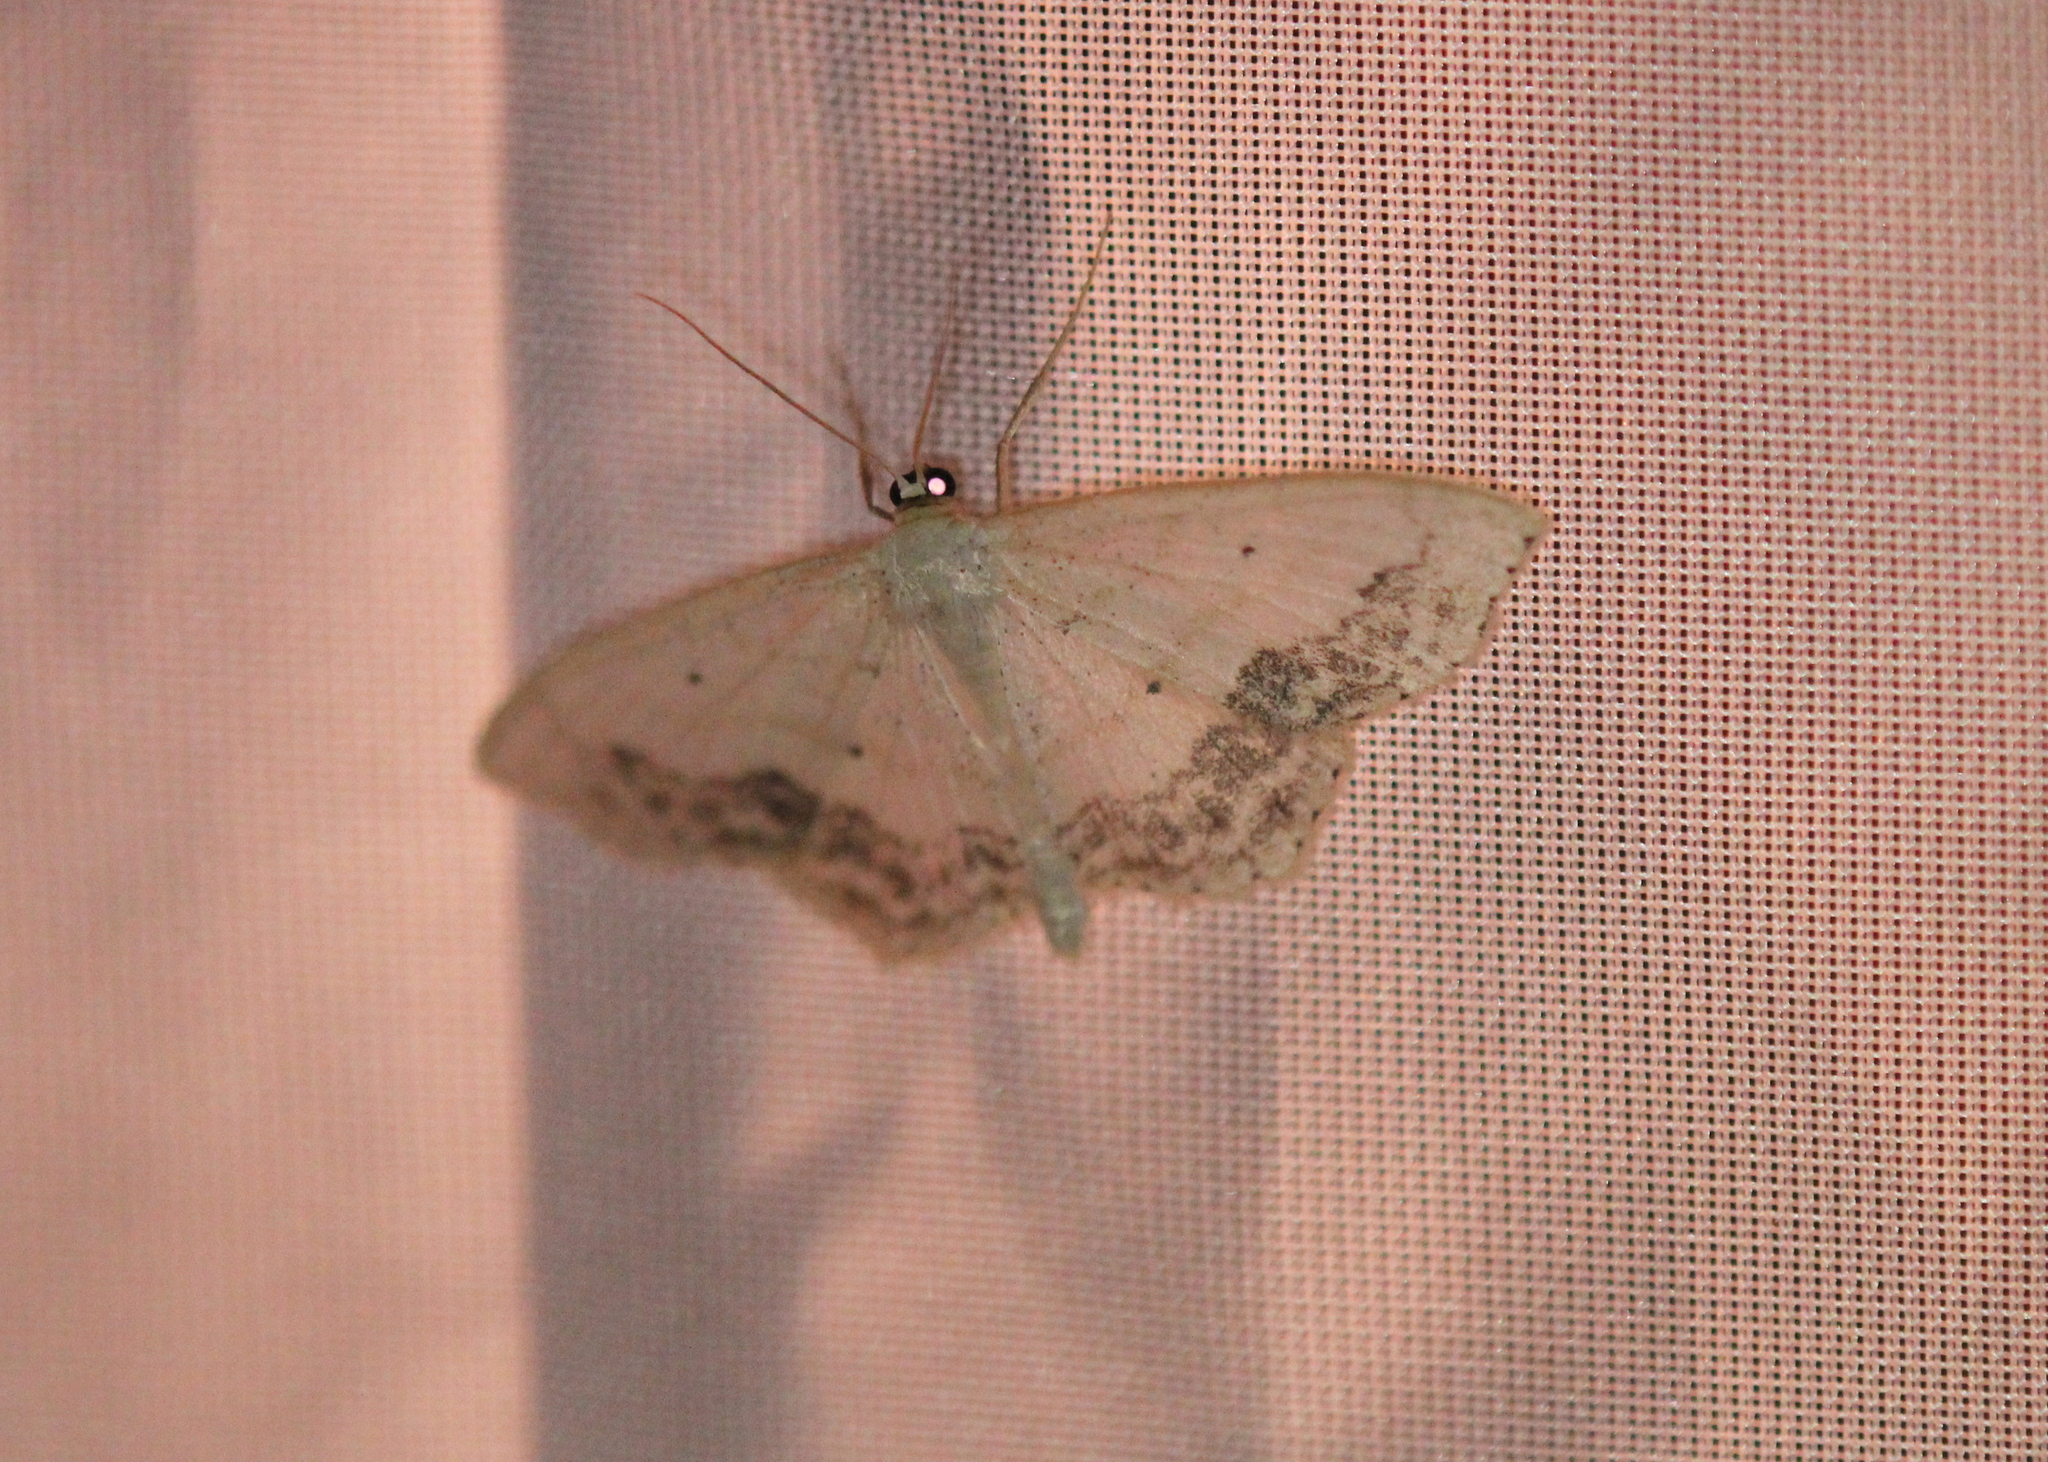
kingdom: Animalia
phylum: Arthropoda
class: Insecta
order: Lepidoptera
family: Geometridae
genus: Scopula
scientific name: Scopula limboundata
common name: Large lace border
